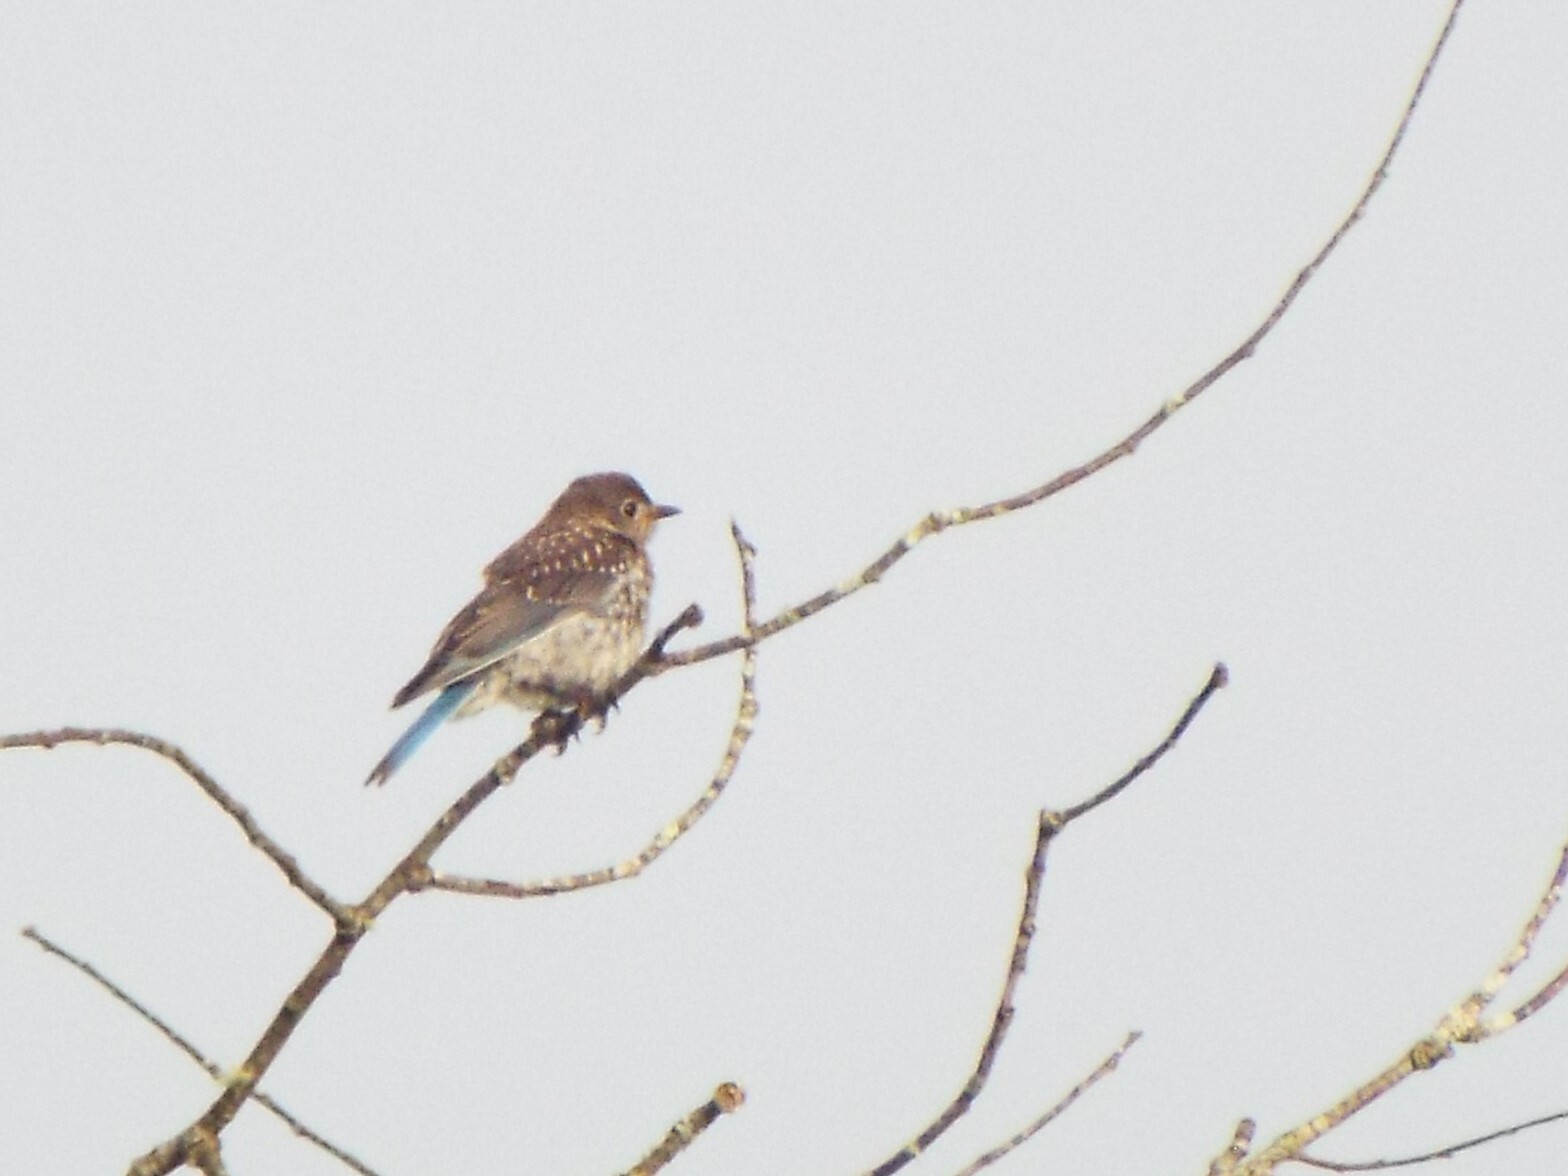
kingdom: Animalia
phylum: Chordata
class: Aves
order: Passeriformes
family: Turdidae
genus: Sialia
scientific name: Sialia sialis
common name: Eastern bluebird
